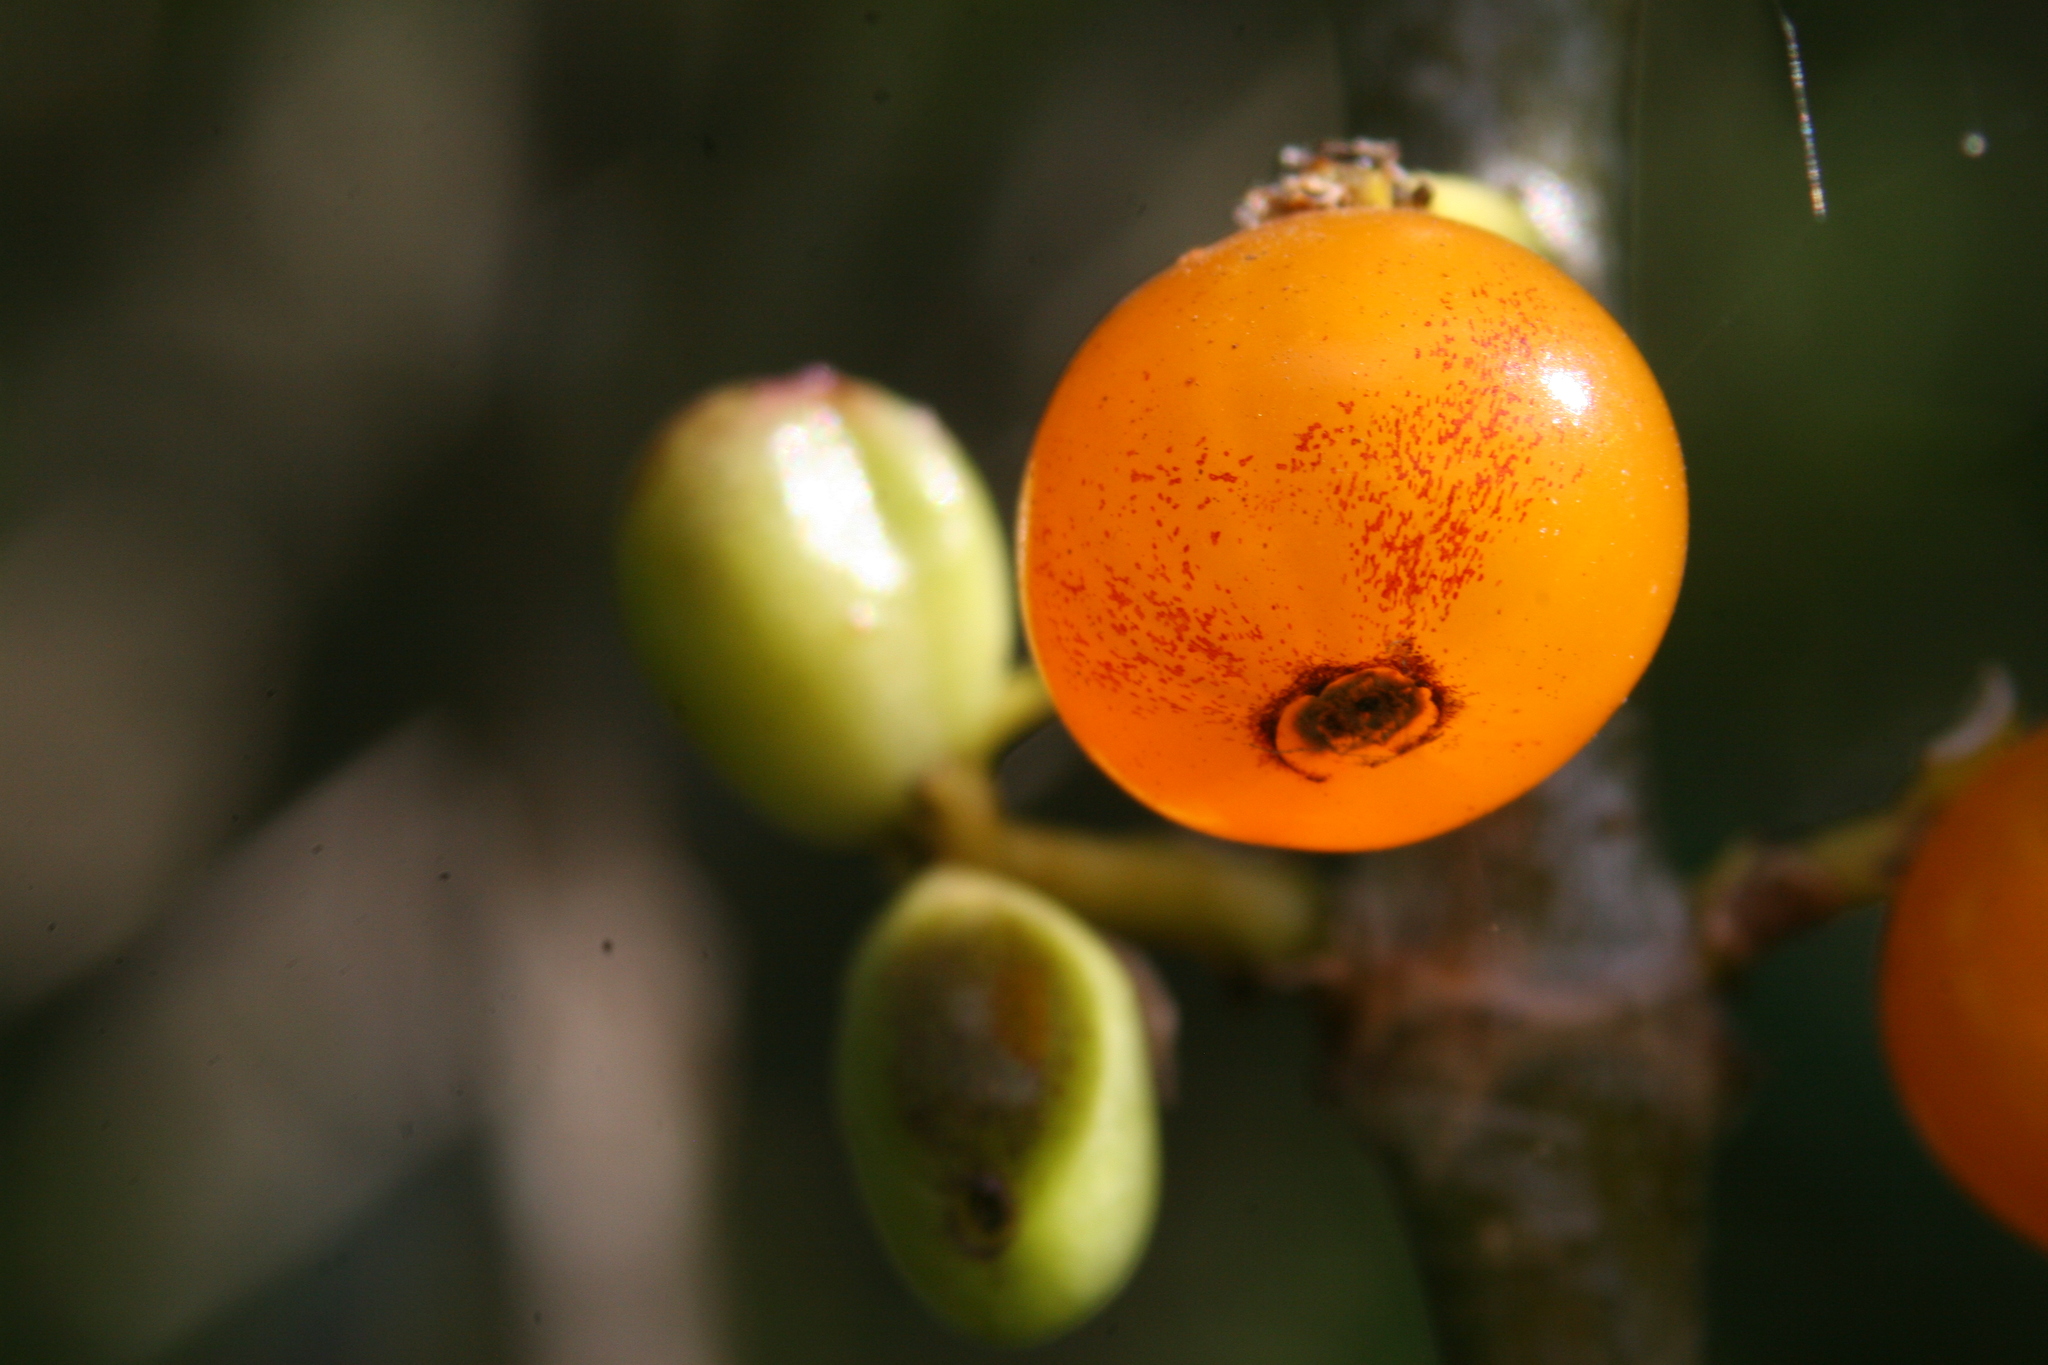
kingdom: Plantae
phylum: Tracheophyta
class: Magnoliopsida
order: Gentianales
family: Rubiaceae
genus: Coprosma
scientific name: Coprosma repens
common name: Tree bedstraw
